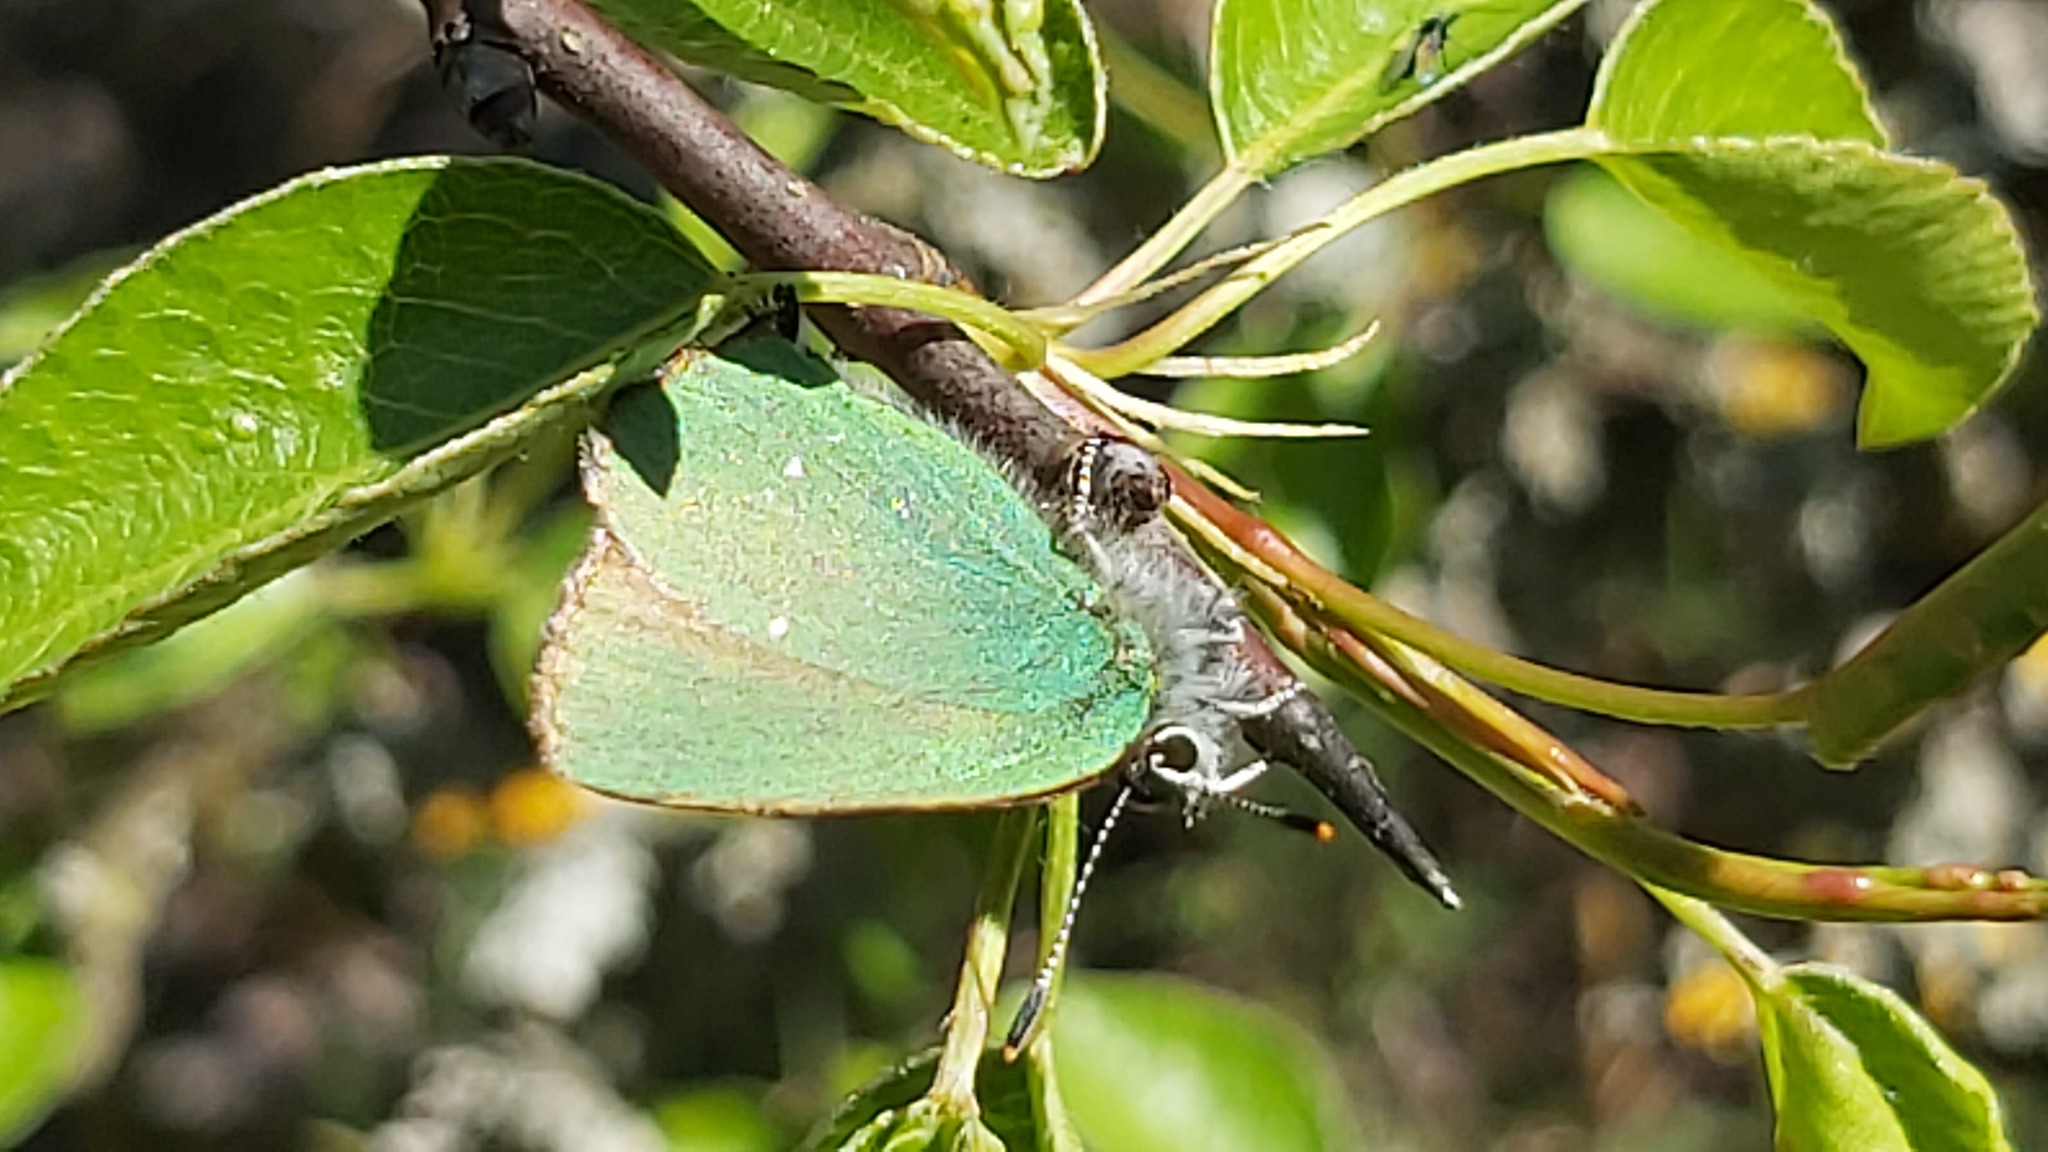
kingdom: Animalia
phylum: Arthropoda
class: Insecta
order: Lepidoptera
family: Lycaenidae
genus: Callophrys
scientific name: Callophrys rubi
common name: Green hairstreak
